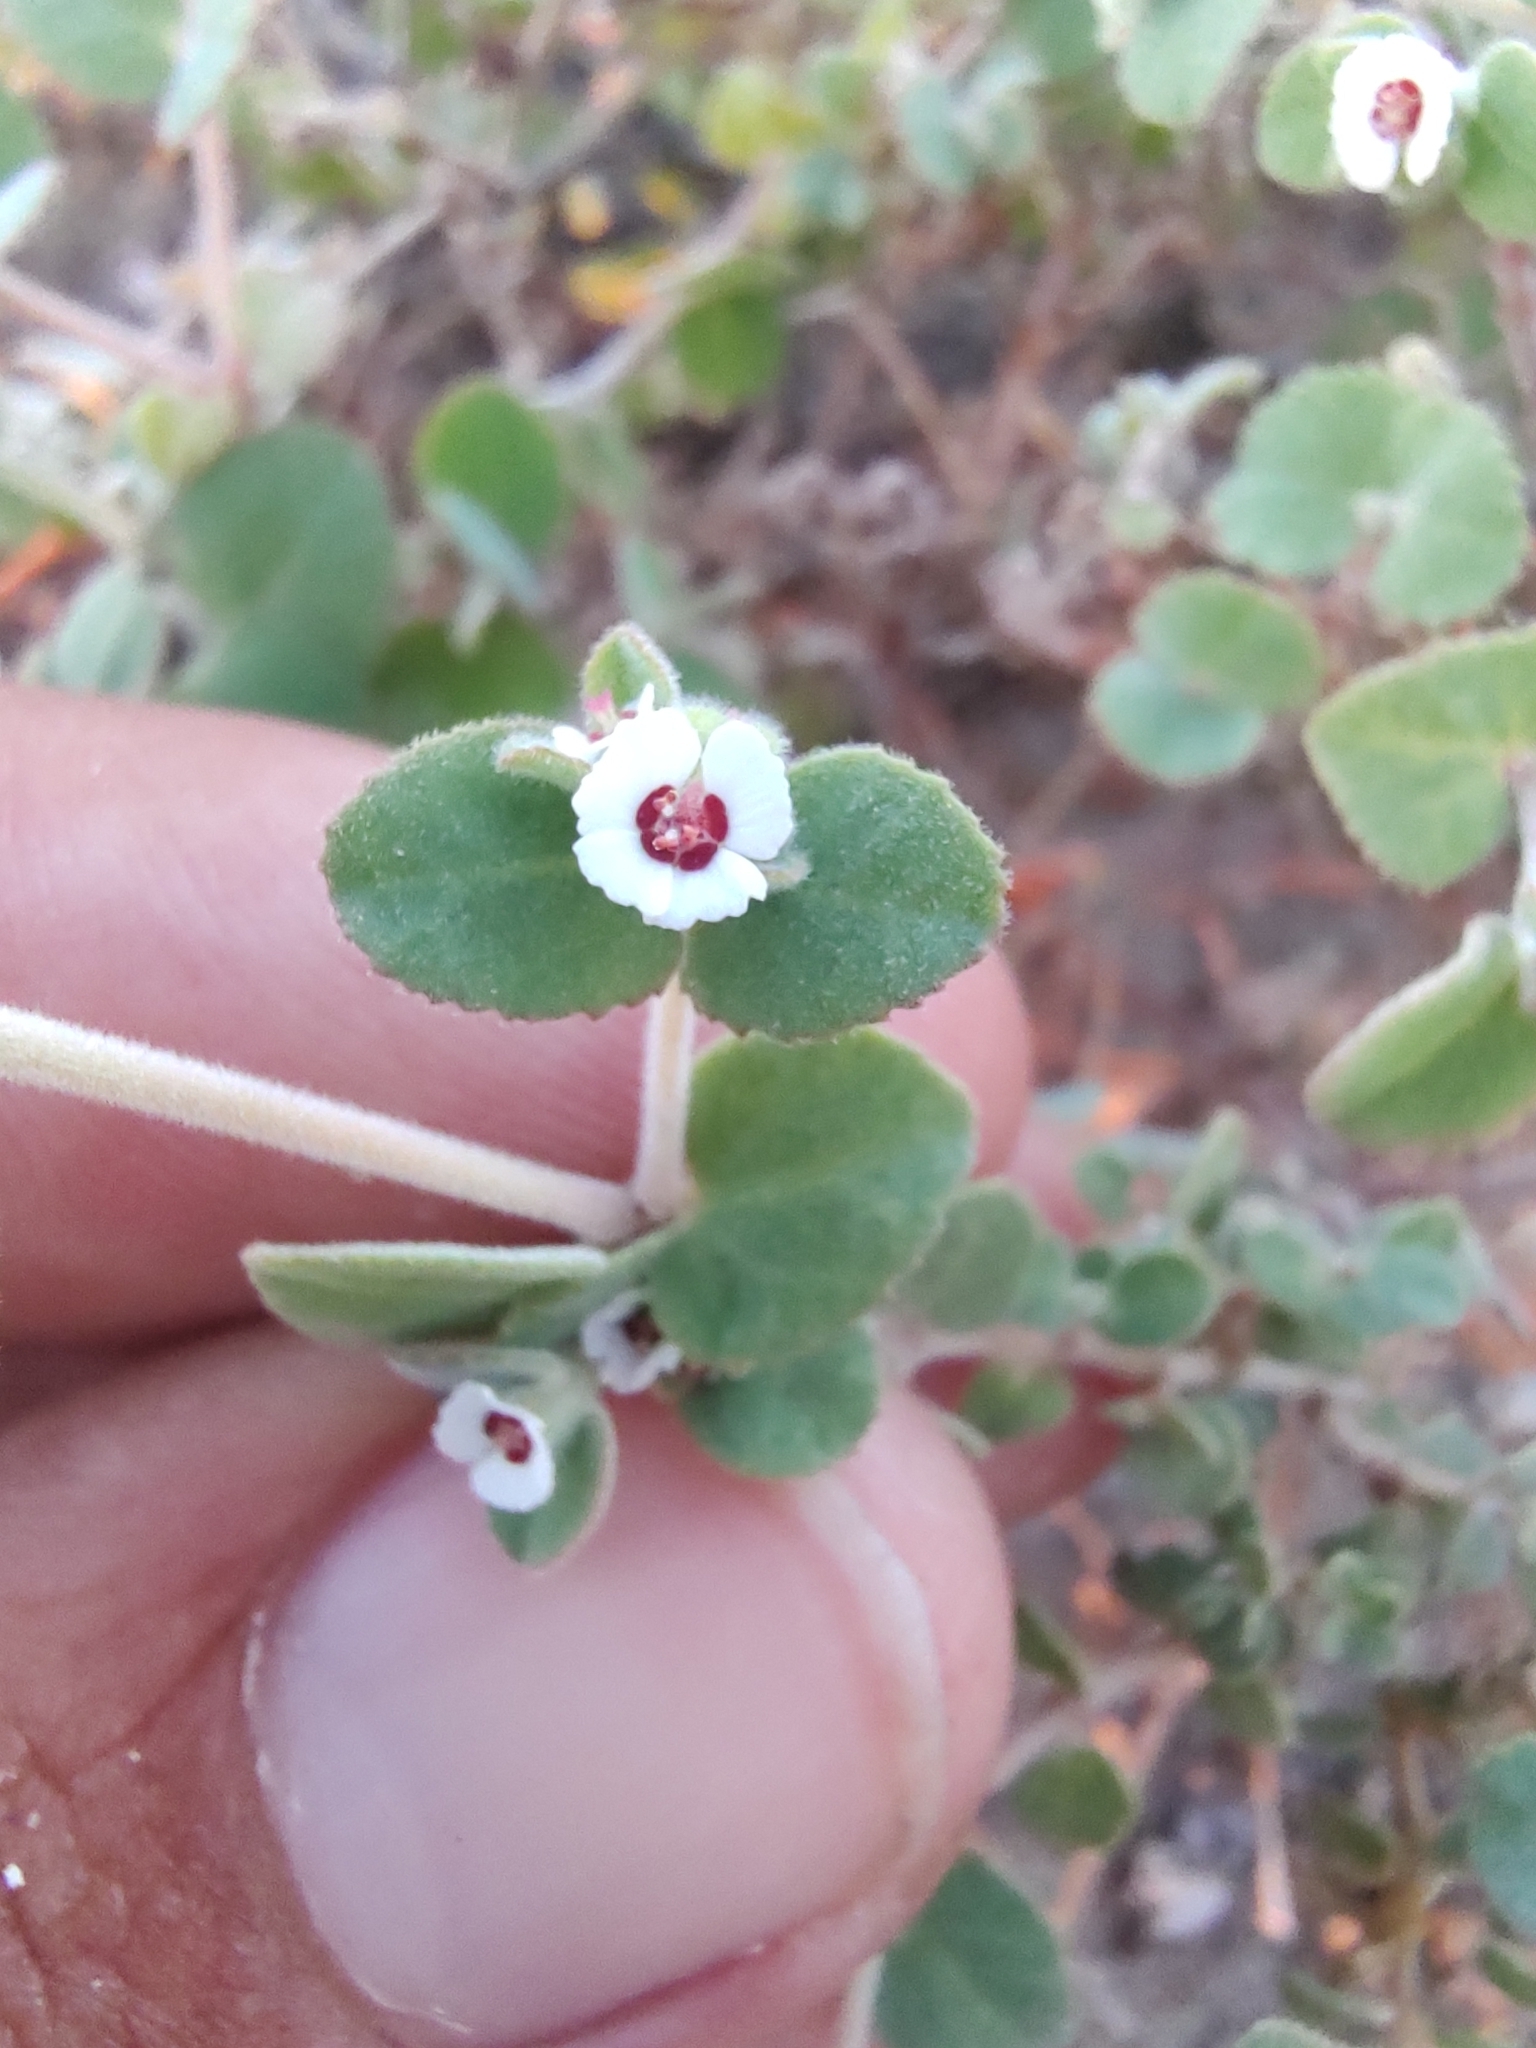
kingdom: Plantae
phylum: Tracheophyta
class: Magnoliopsida
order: Malpighiales
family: Euphorbiaceae
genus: Euphorbia
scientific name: Euphorbia leucophylla
